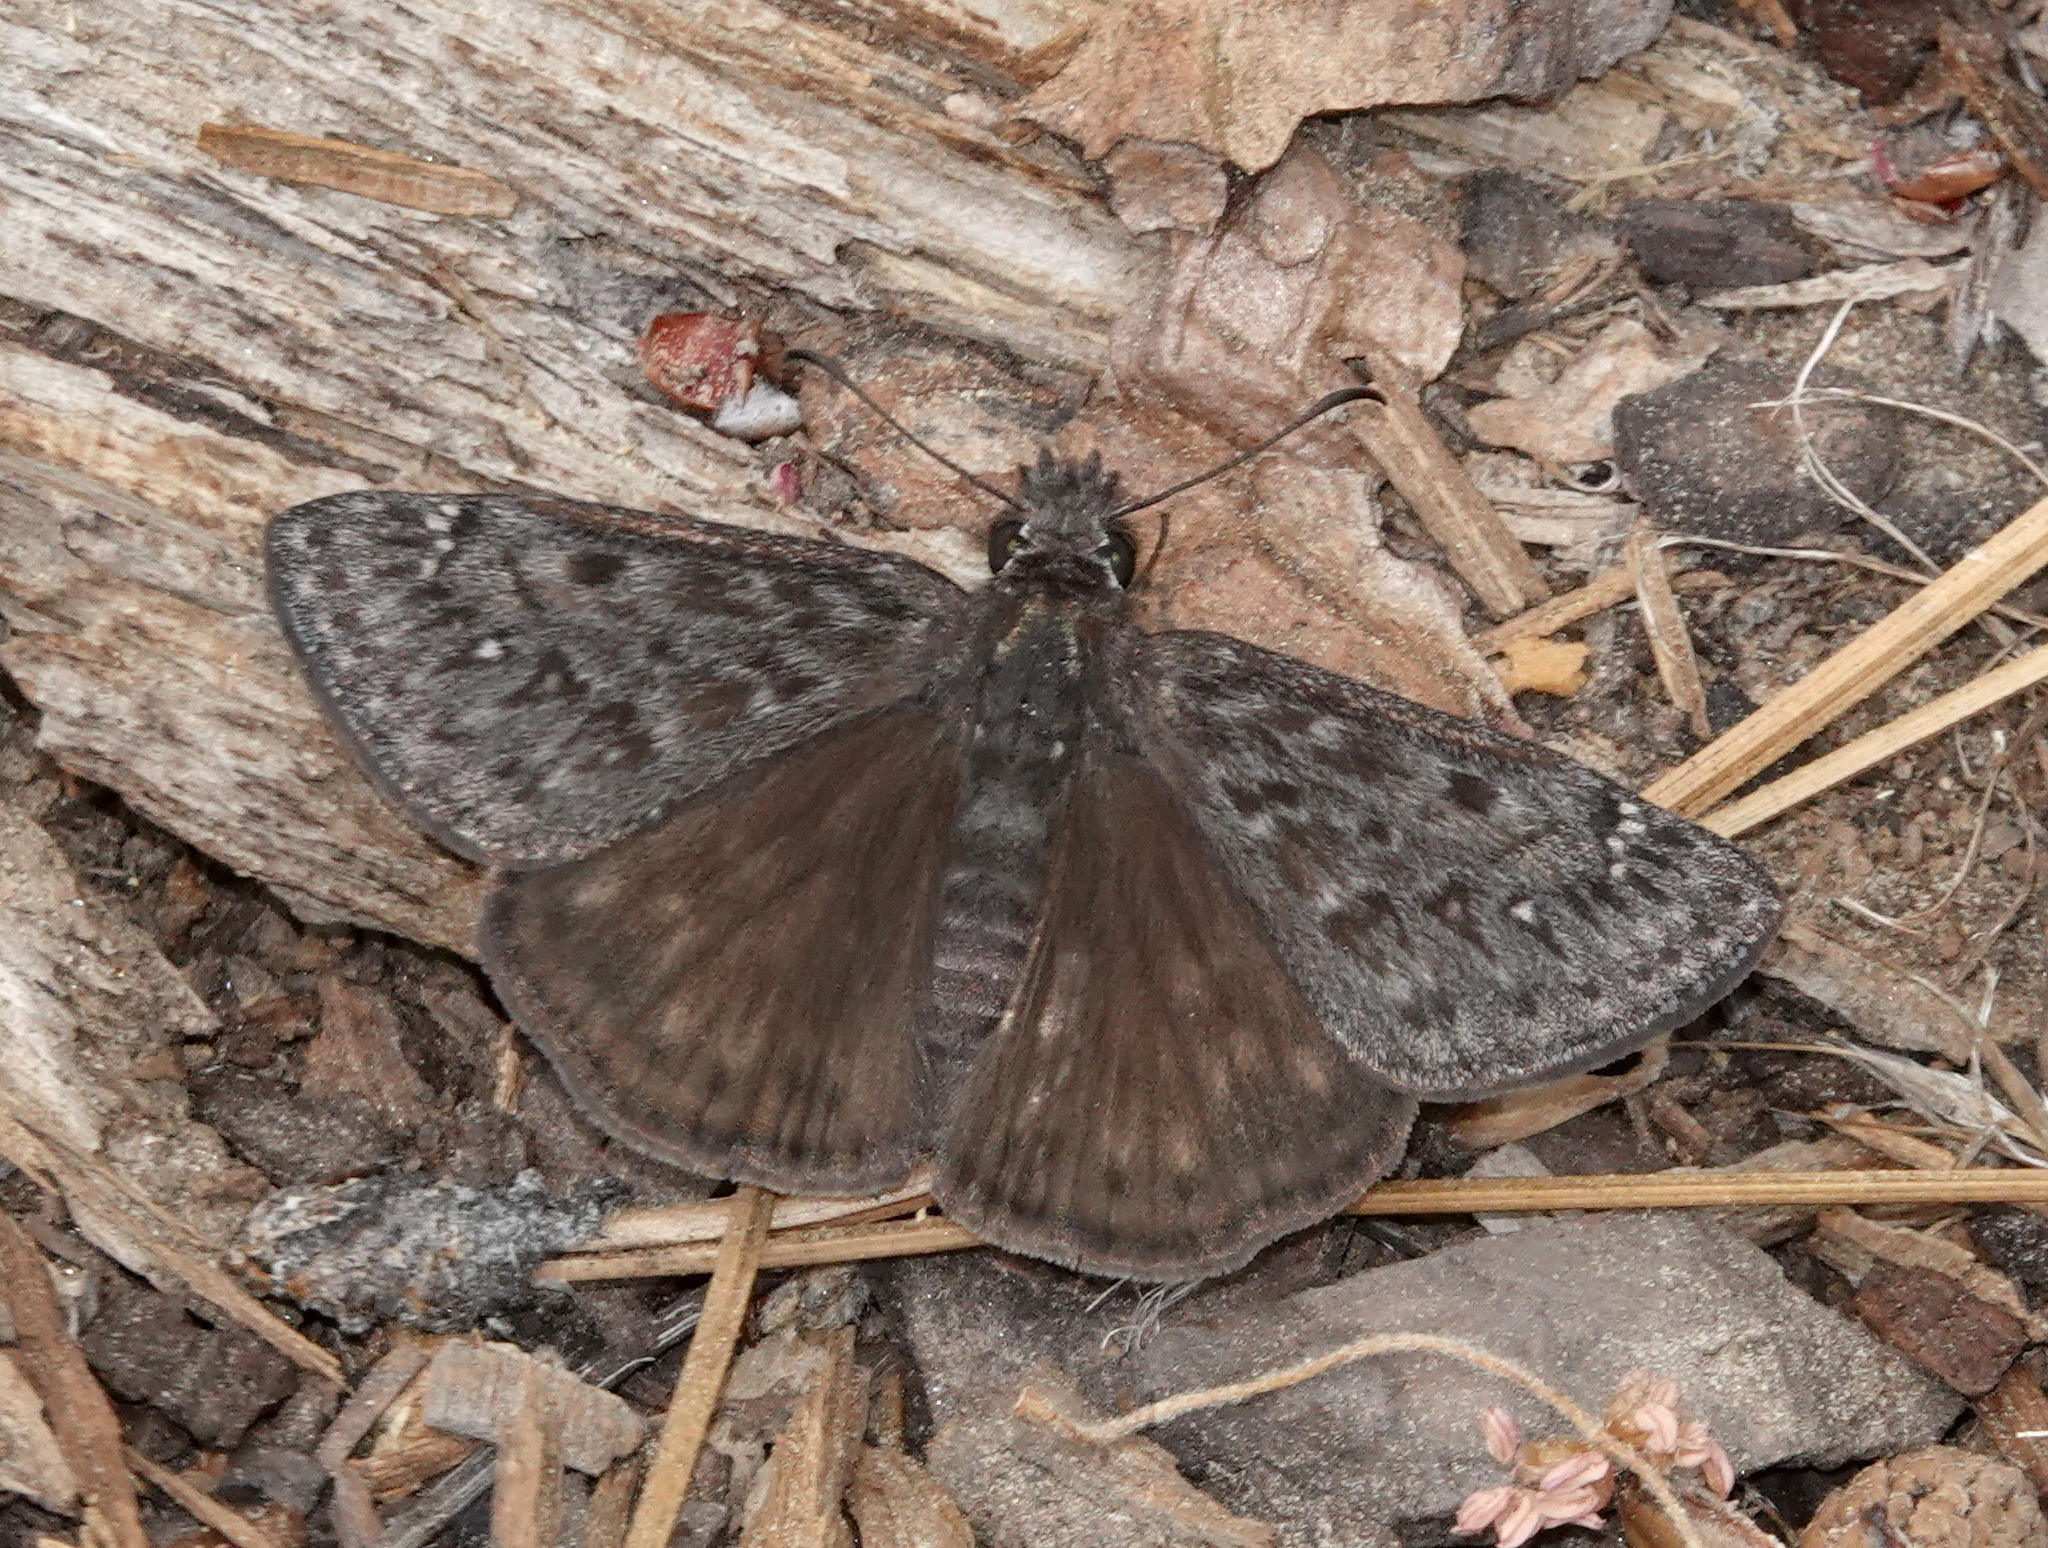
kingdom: Animalia
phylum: Arthropoda
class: Insecta
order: Lepidoptera
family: Hesperiidae
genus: Erynnis
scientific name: Erynnis propertius
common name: Propertius duskywing
